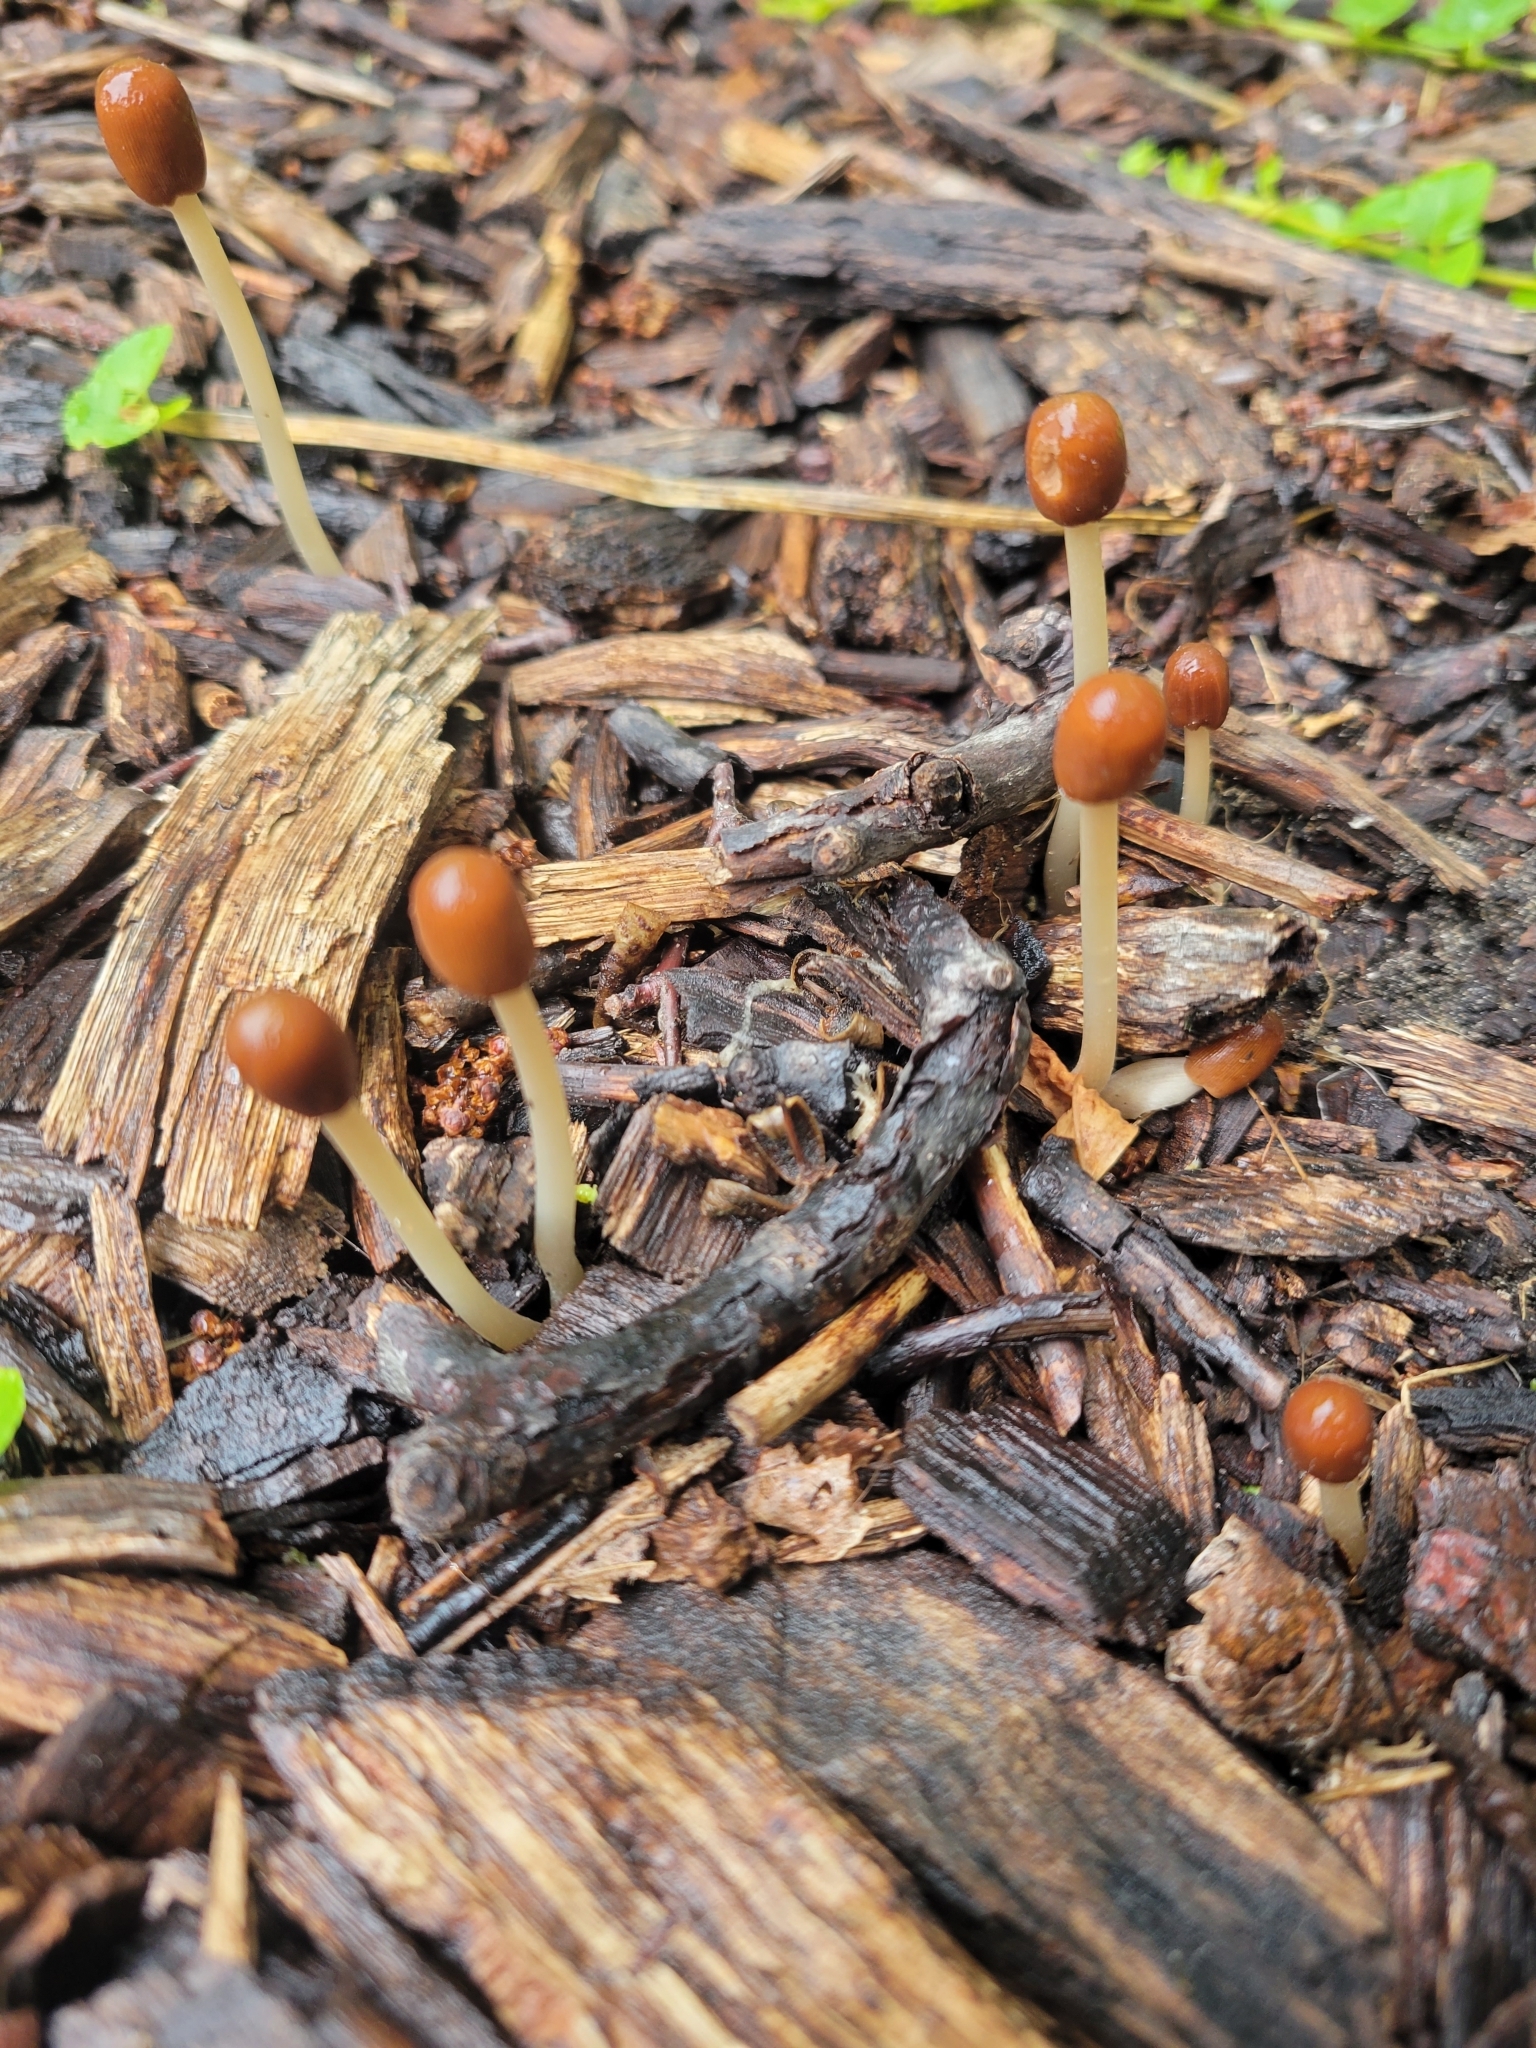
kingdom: Fungi
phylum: Basidiomycota
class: Agaricomycetes
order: Agaricales
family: Psathyrellaceae
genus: Psathyrella
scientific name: Psathyrella corrugis
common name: Red edge brittlestem
